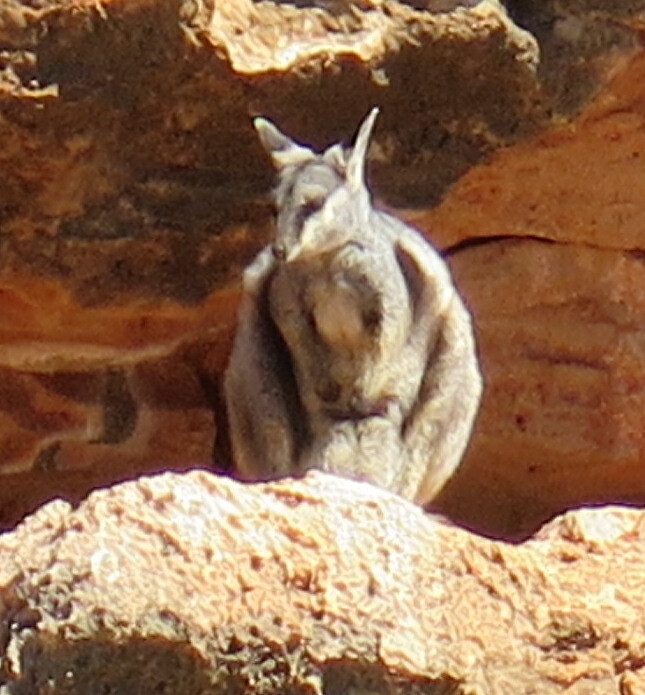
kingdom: Animalia
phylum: Chordata
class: Mammalia
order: Diprotodontia
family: Macropodidae
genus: Petrogale
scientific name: Petrogale lateralis
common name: Black-flanked rock-wallaby
